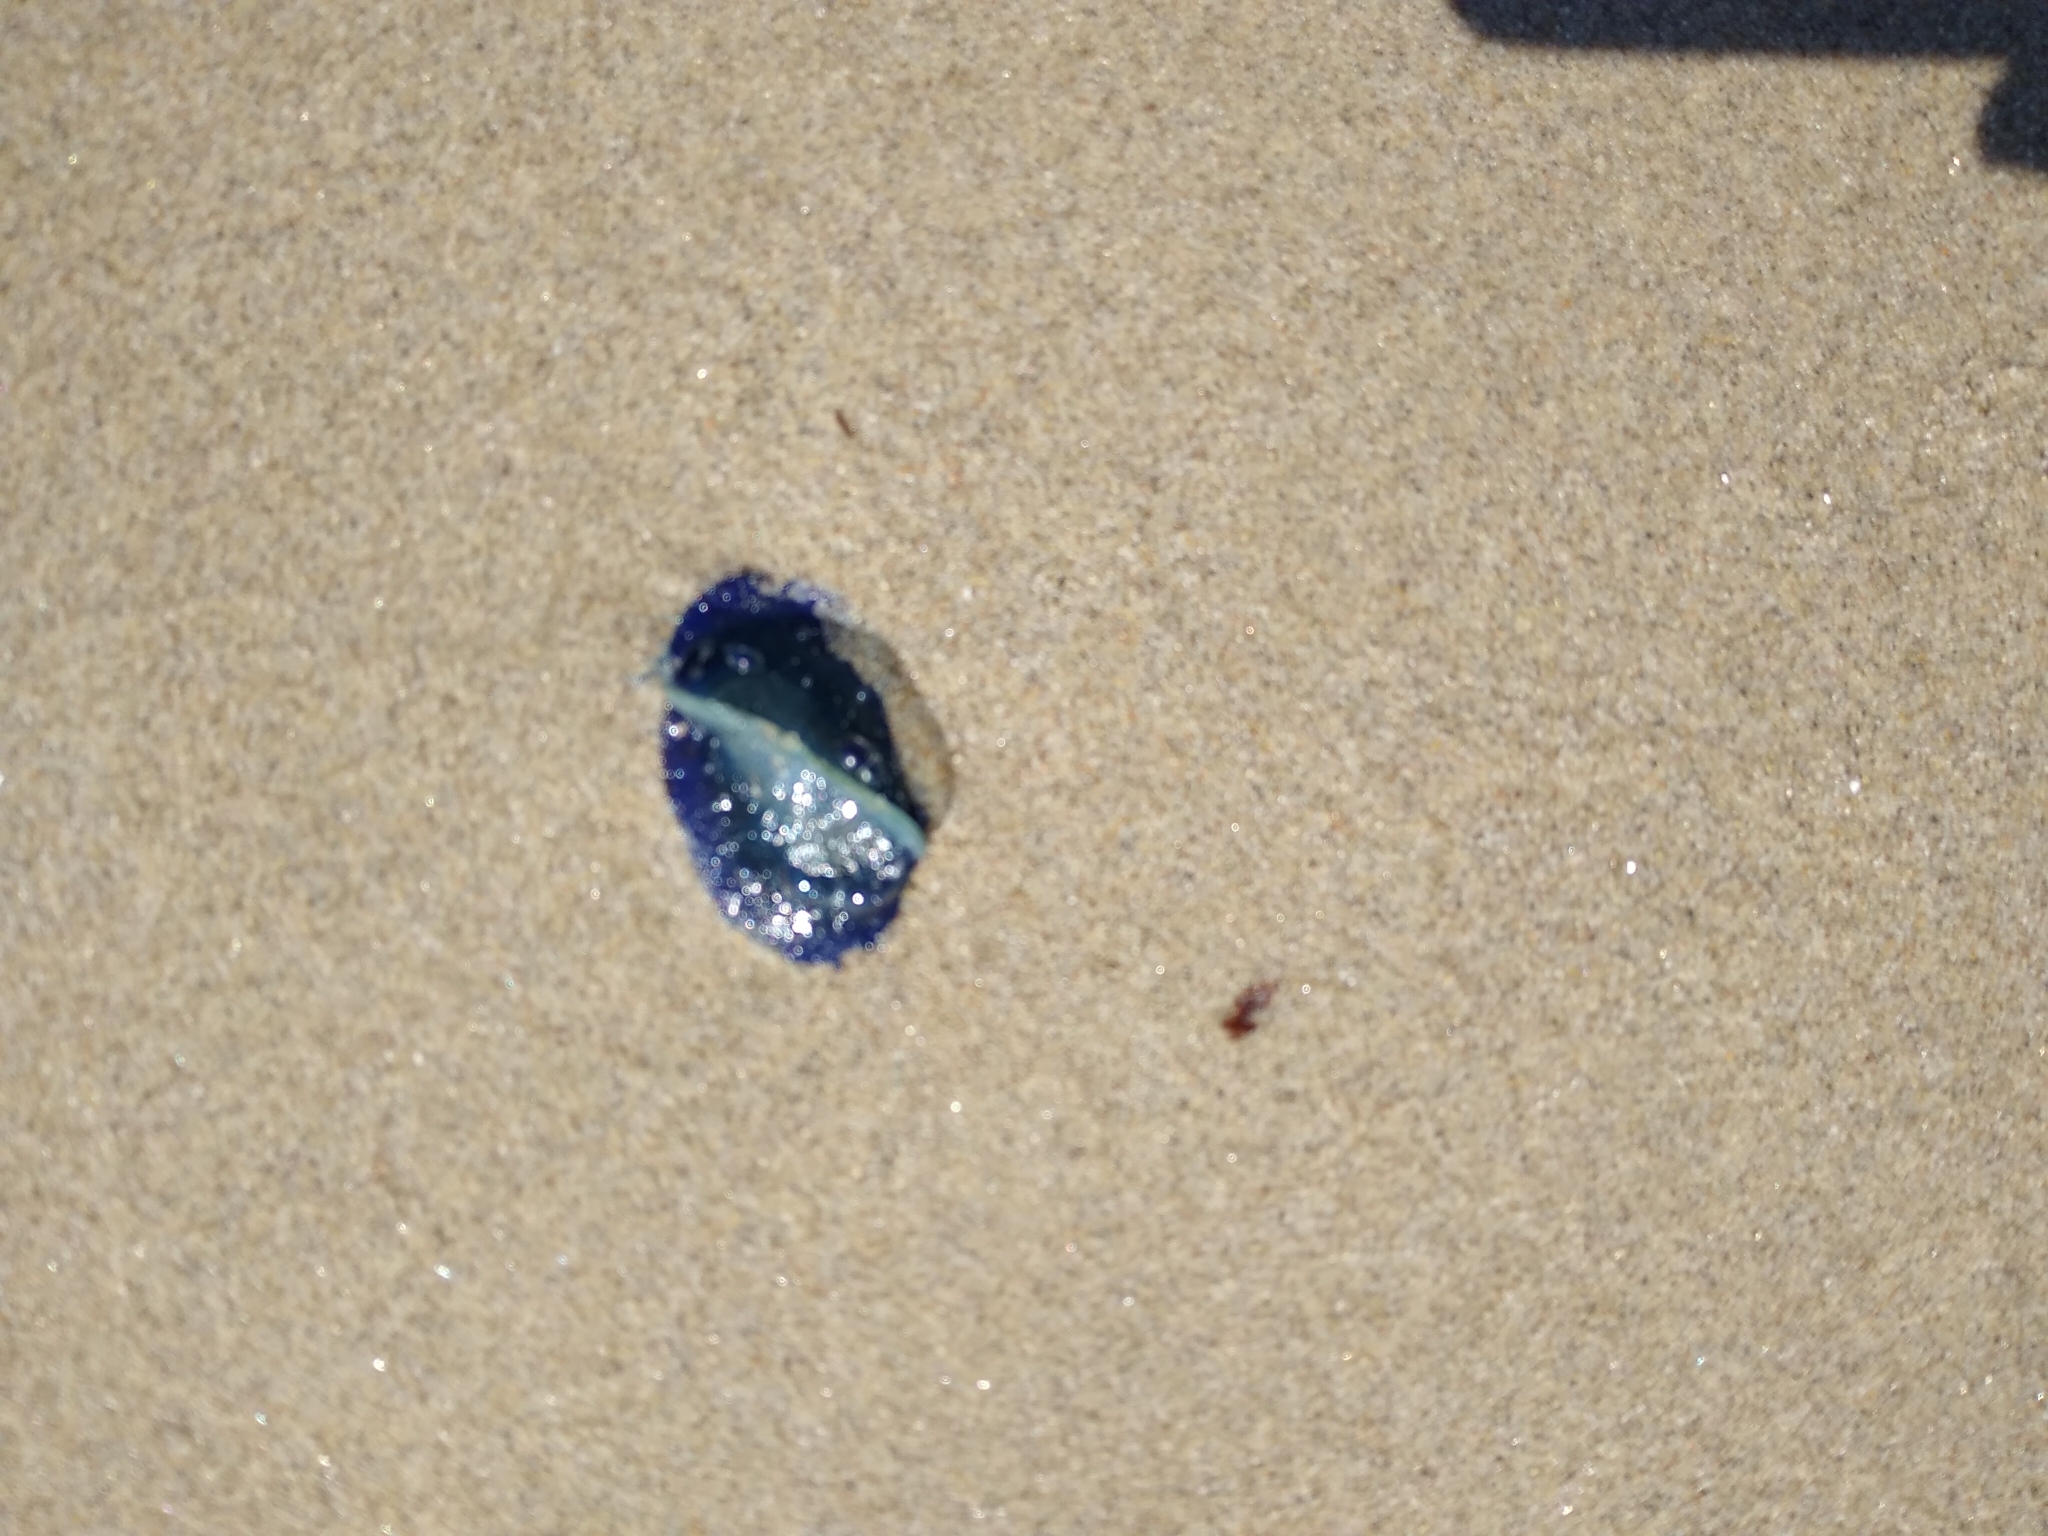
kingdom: Animalia
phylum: Cnidaria
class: Hydrozoa
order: Anthoathecata
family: Porpitidae
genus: Velella
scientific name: Velella velella
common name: By-the-wind-sailor
